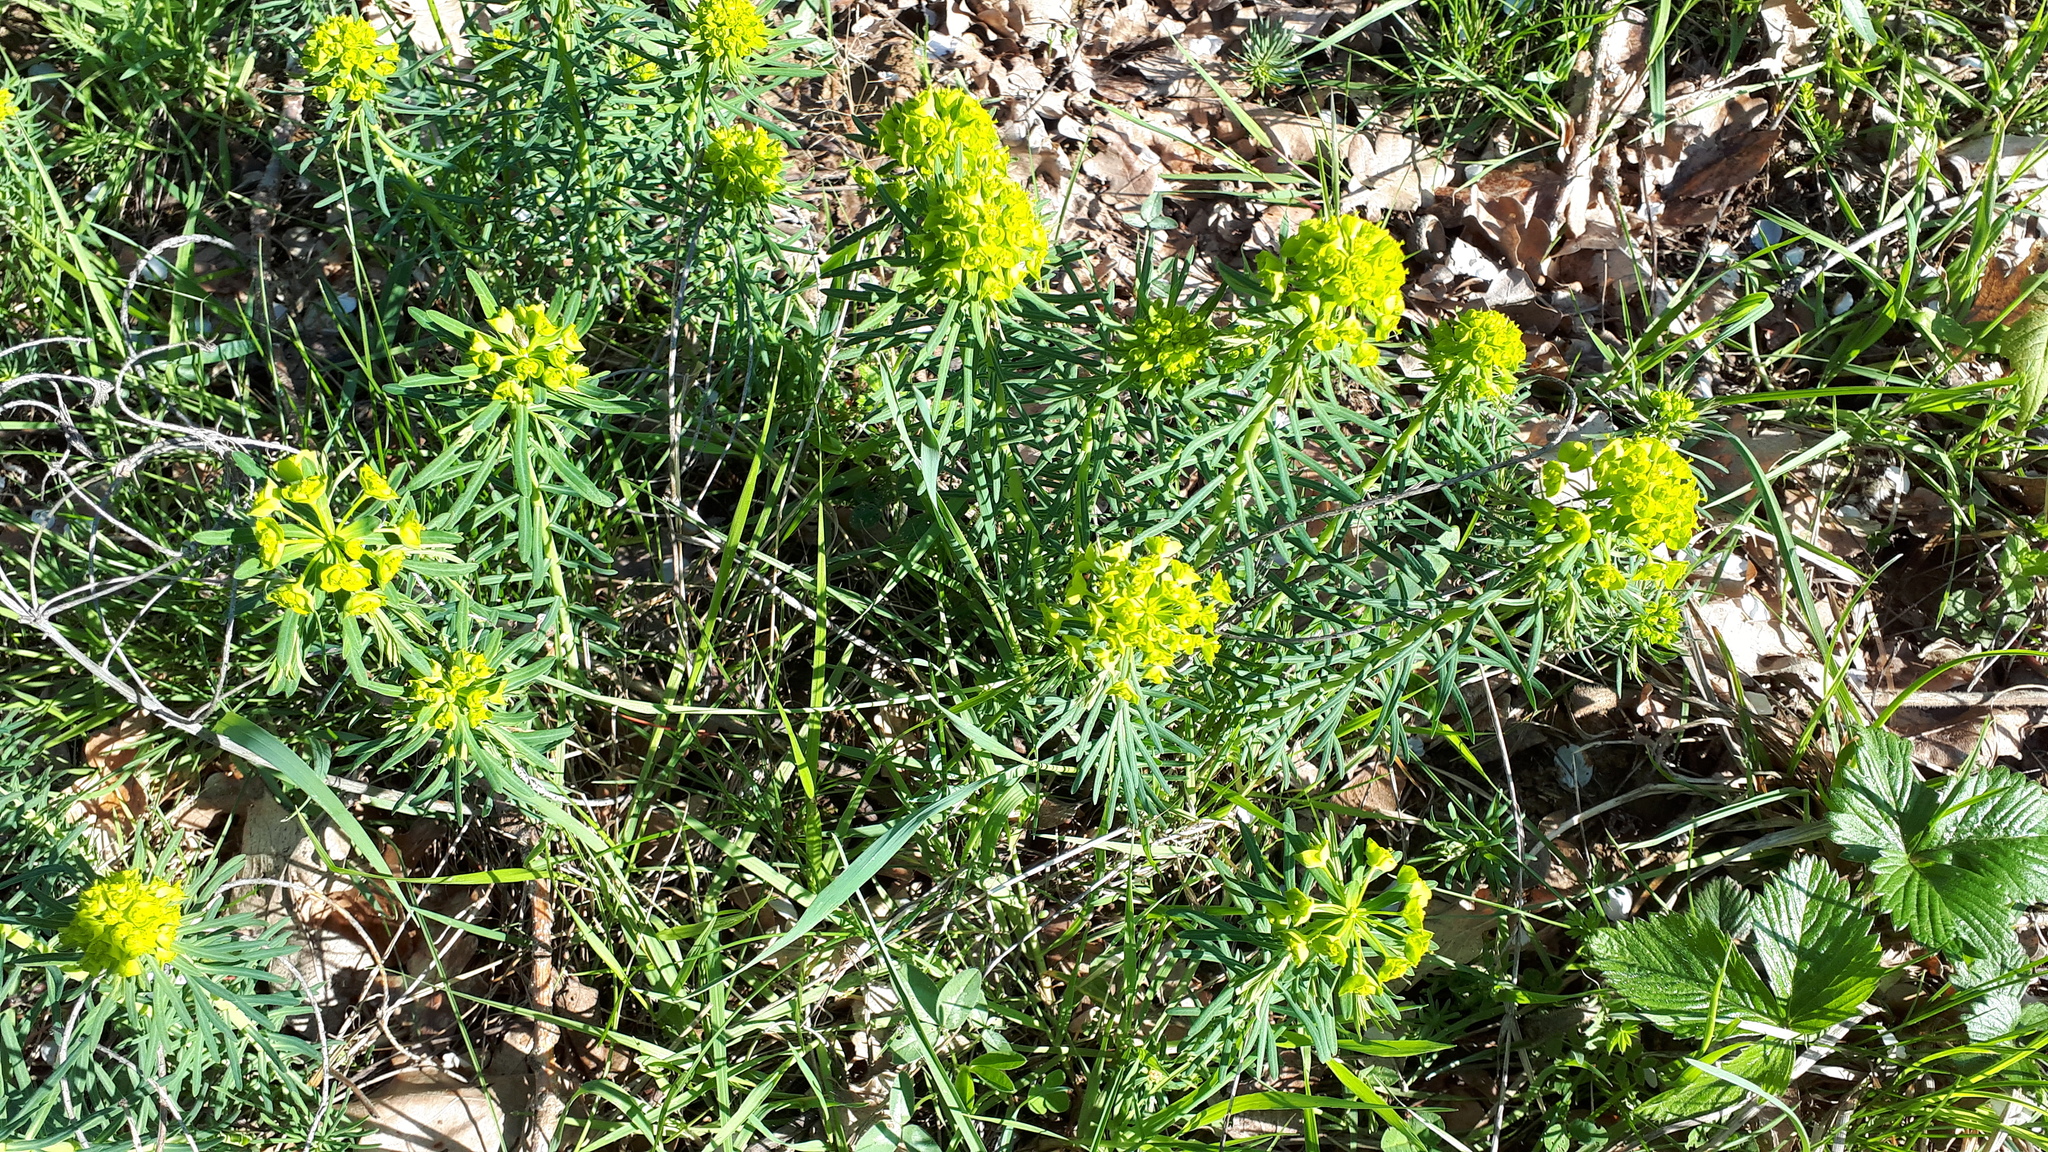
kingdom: Plantae
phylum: Tracheophyta
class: Magnoliopsida
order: Malpighiales
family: Euphorbiaceae
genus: Euphorbia
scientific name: Euphorbia cyparissias
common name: Cypress spurge
